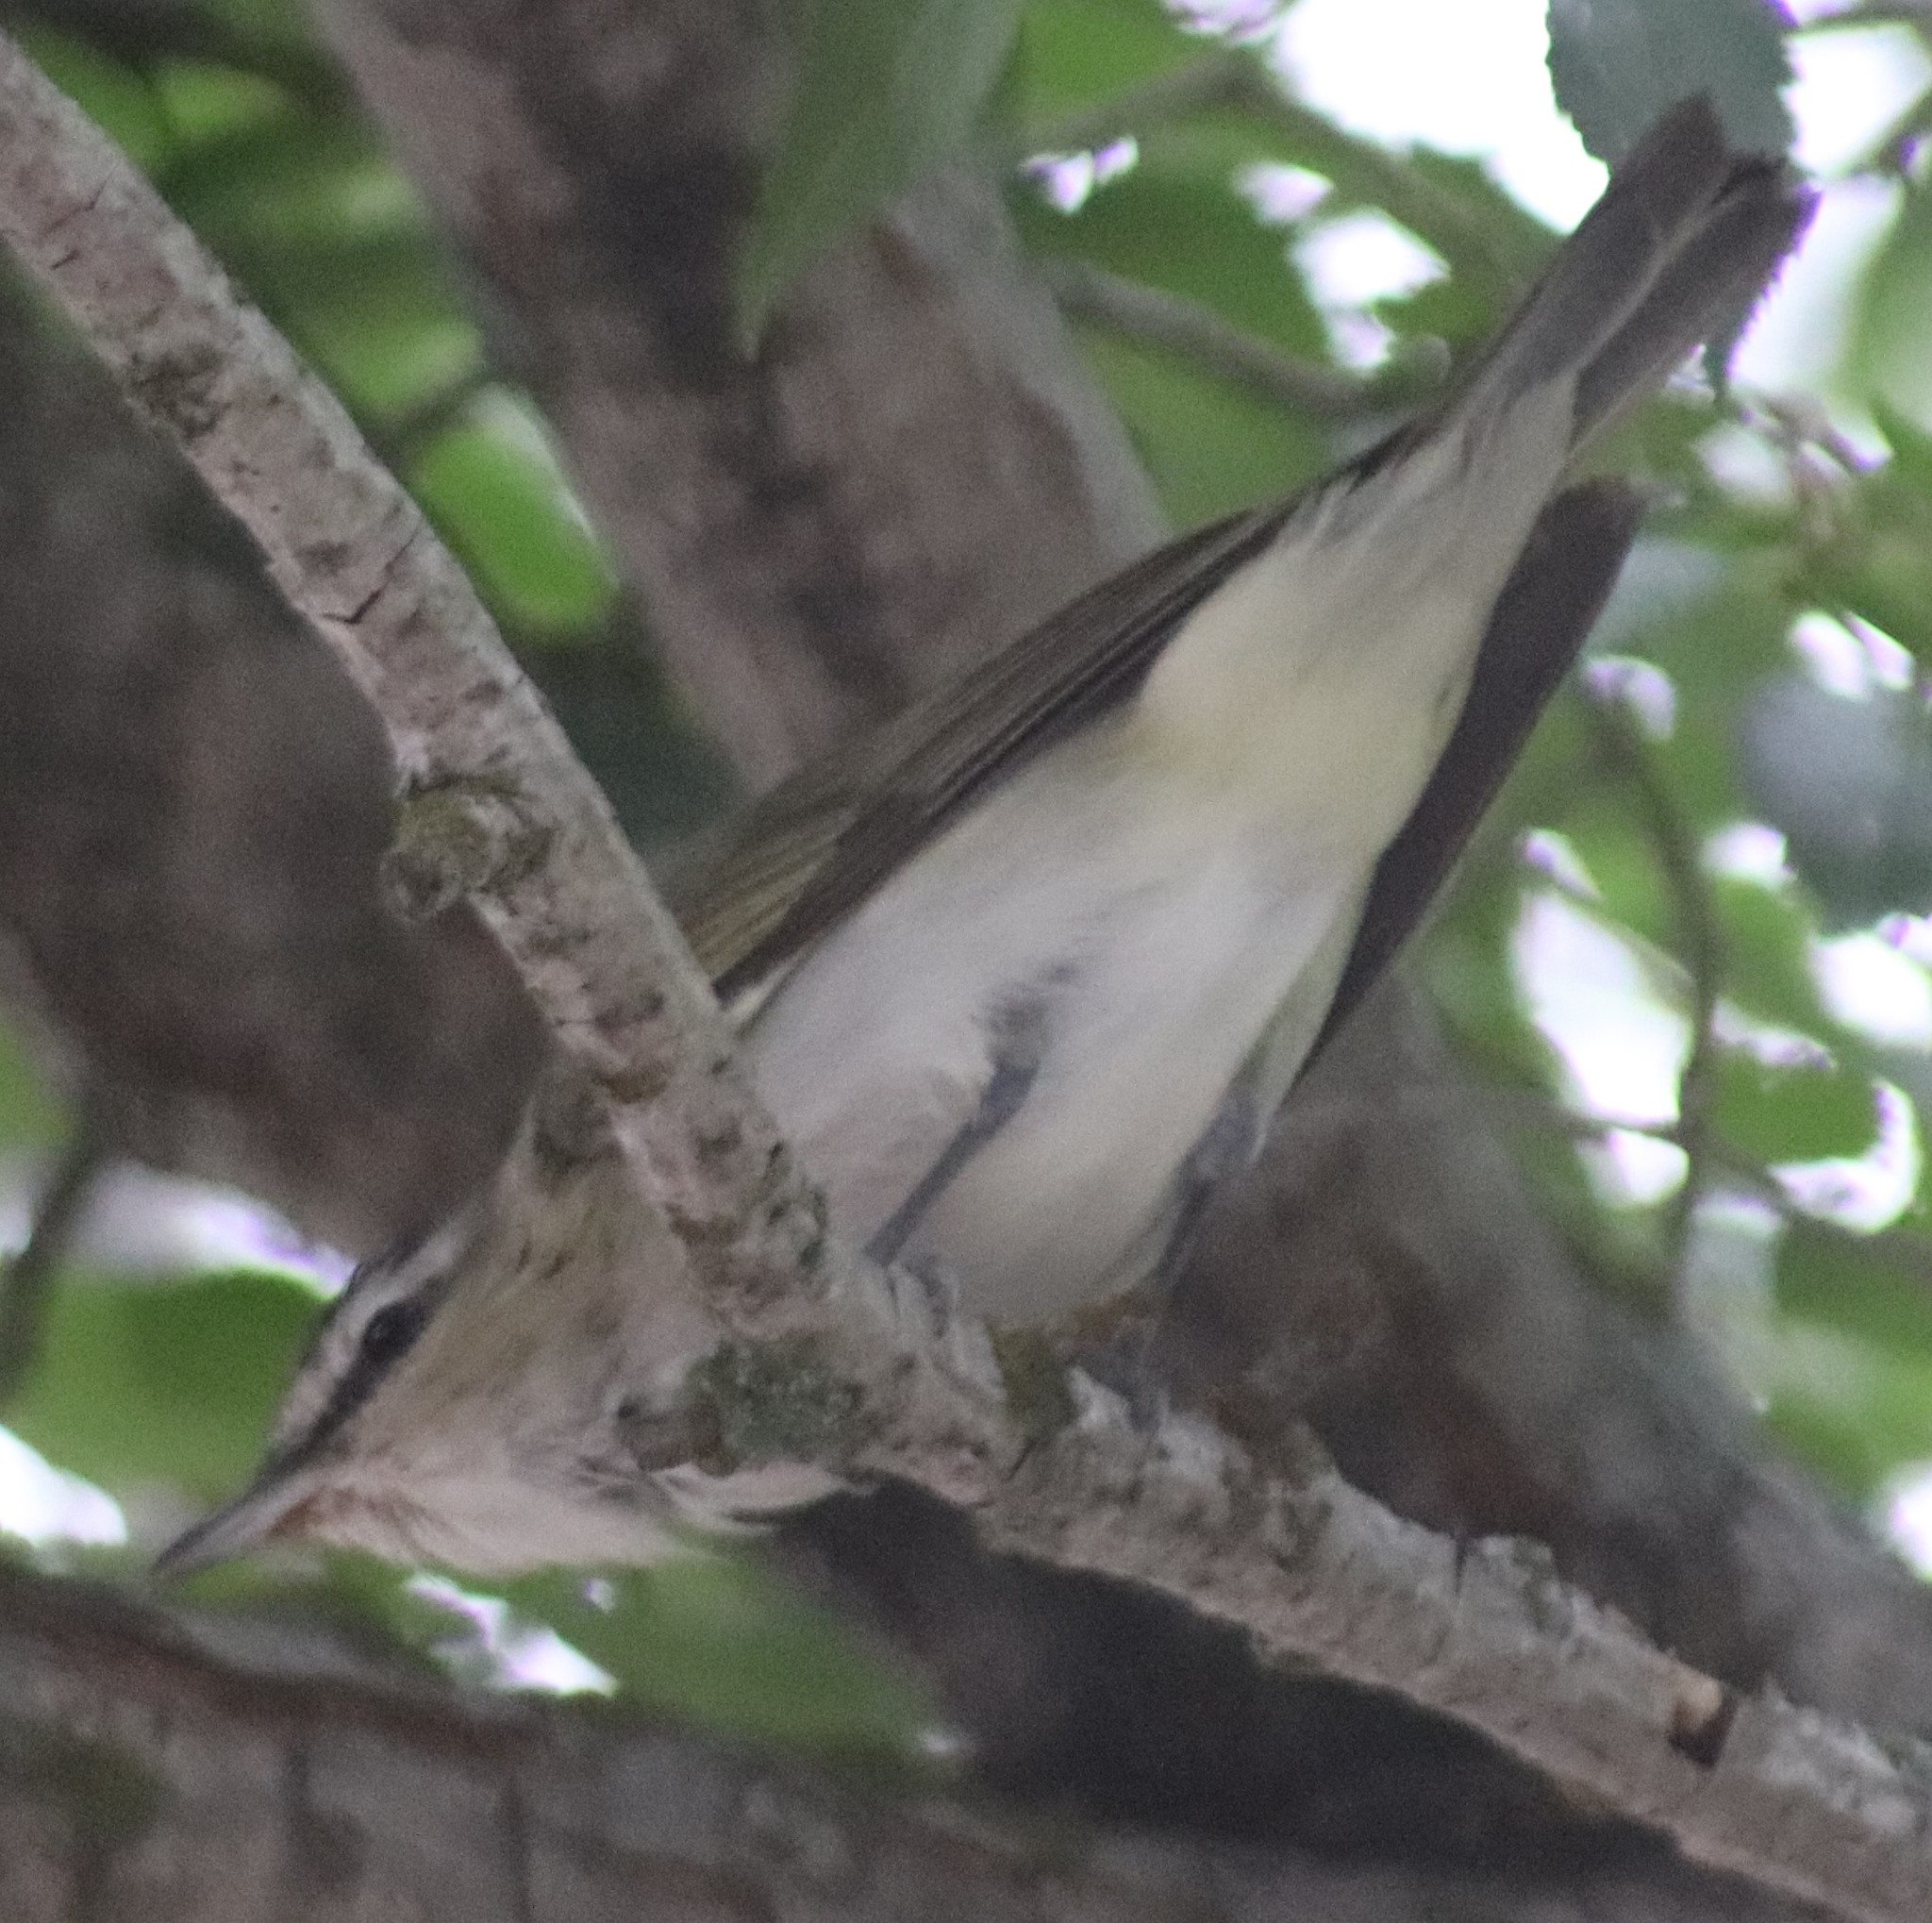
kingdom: Animalia
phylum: Chordata
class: Aves
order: Passeriformes
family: Vireonidae
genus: Vireo
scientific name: Vireo olivaceus
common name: Red-eyed vireo
